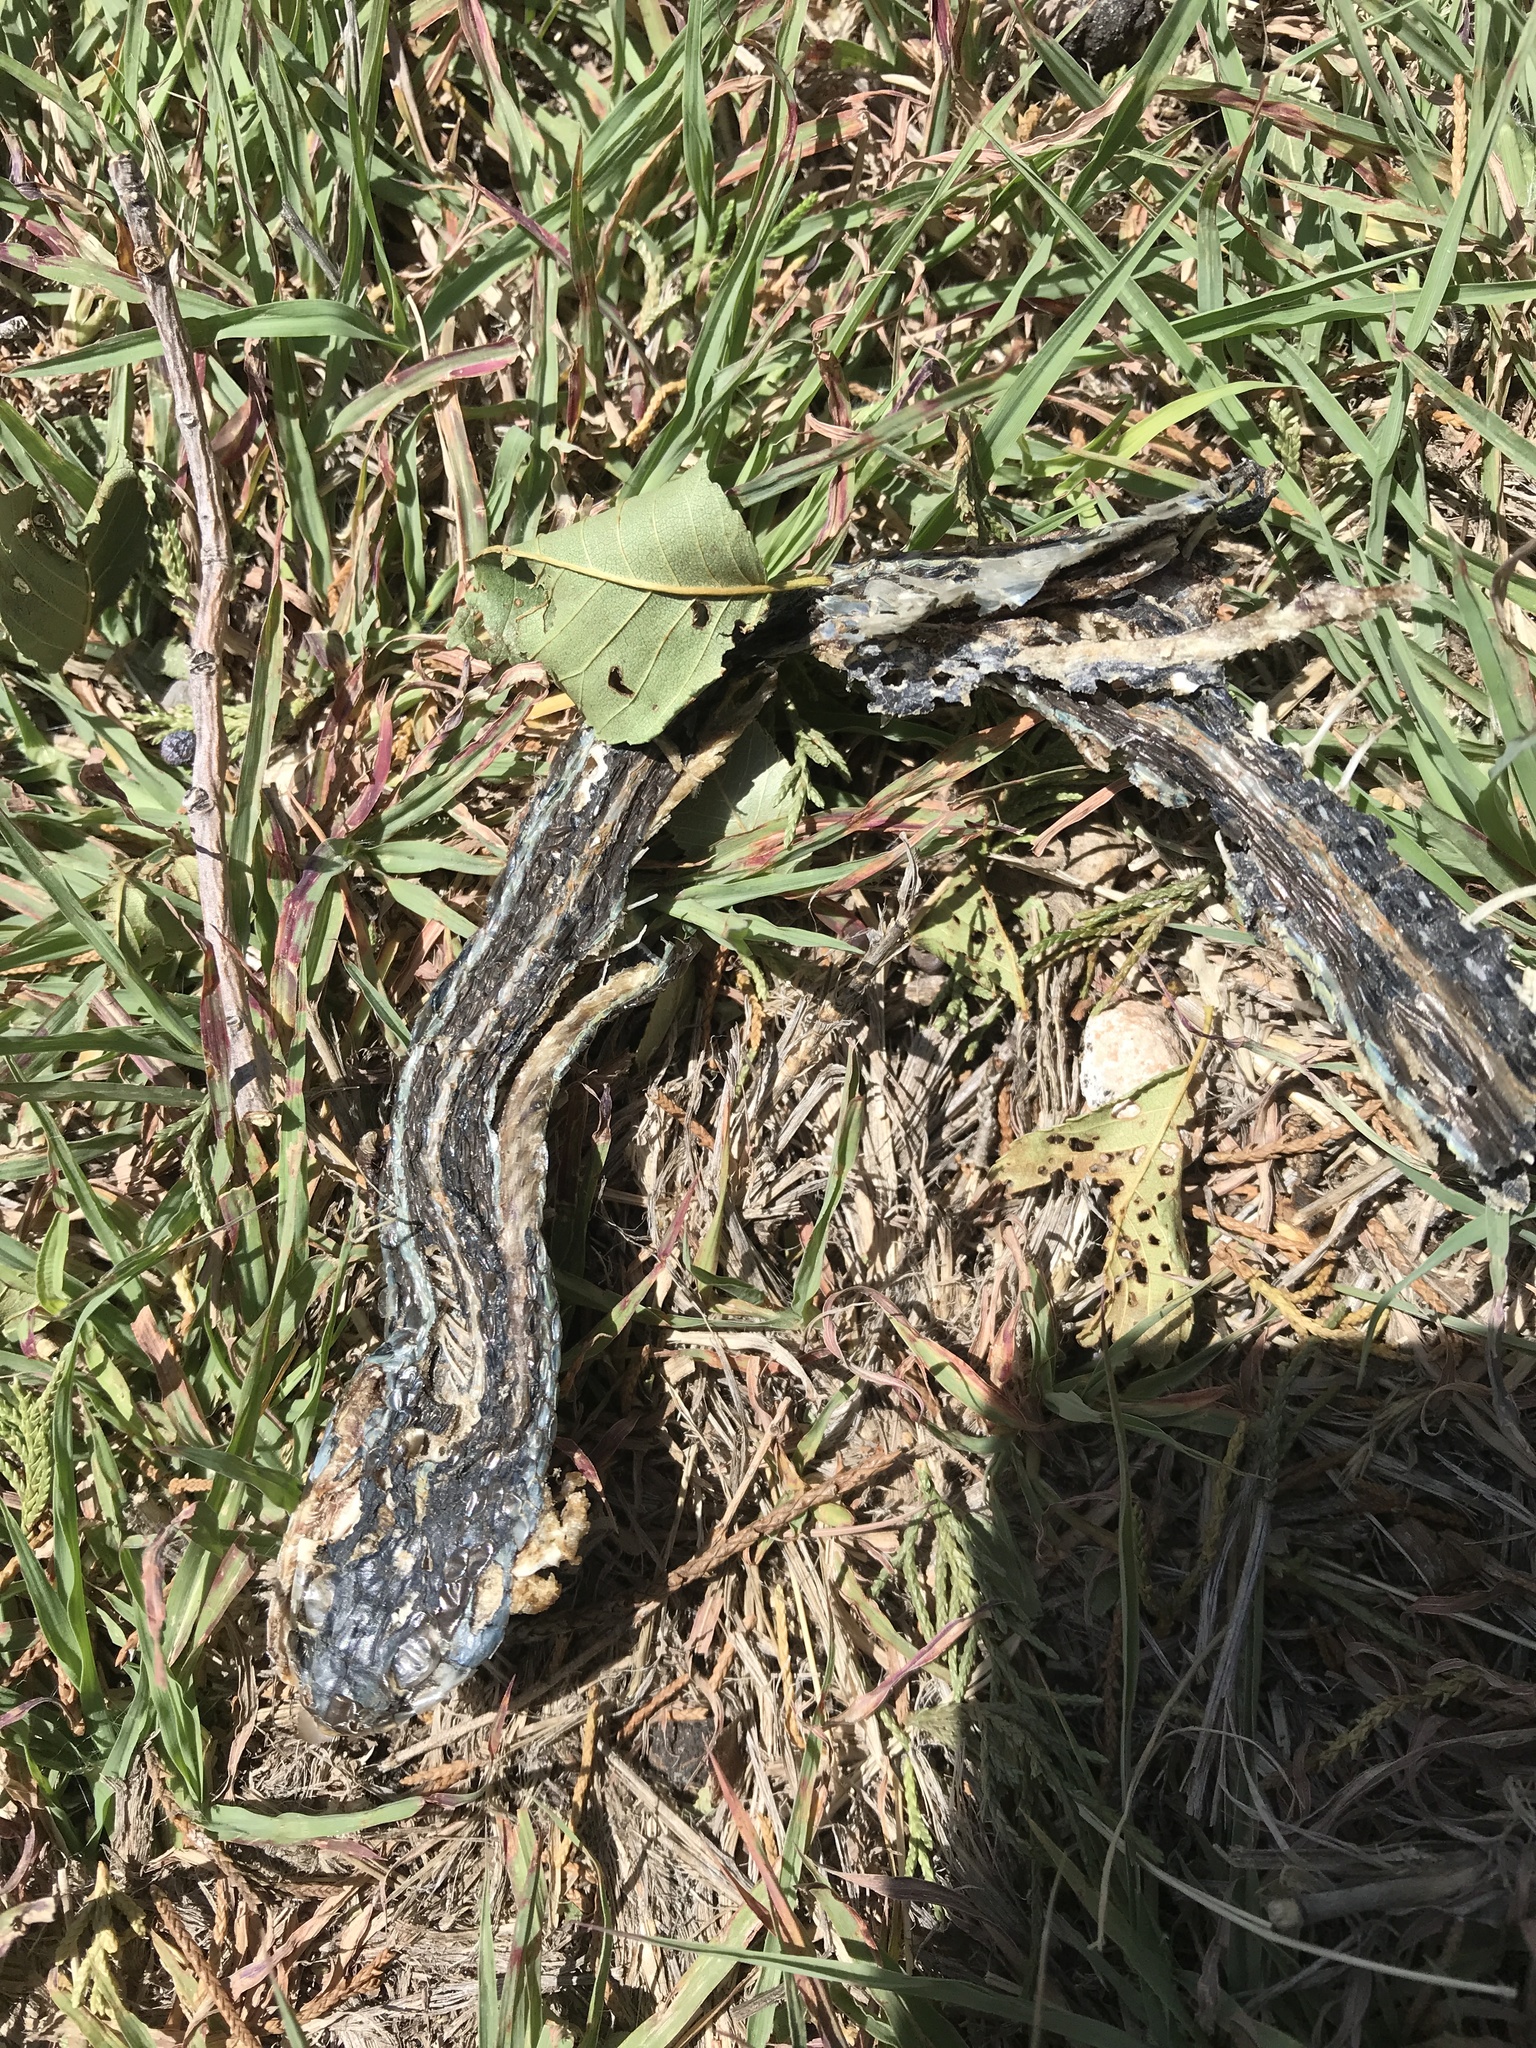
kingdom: Animalia
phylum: Chordata
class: Squamata
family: Colubridae
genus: Thamnophis
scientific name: Thamnophis proximus
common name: Western ribbon snake
